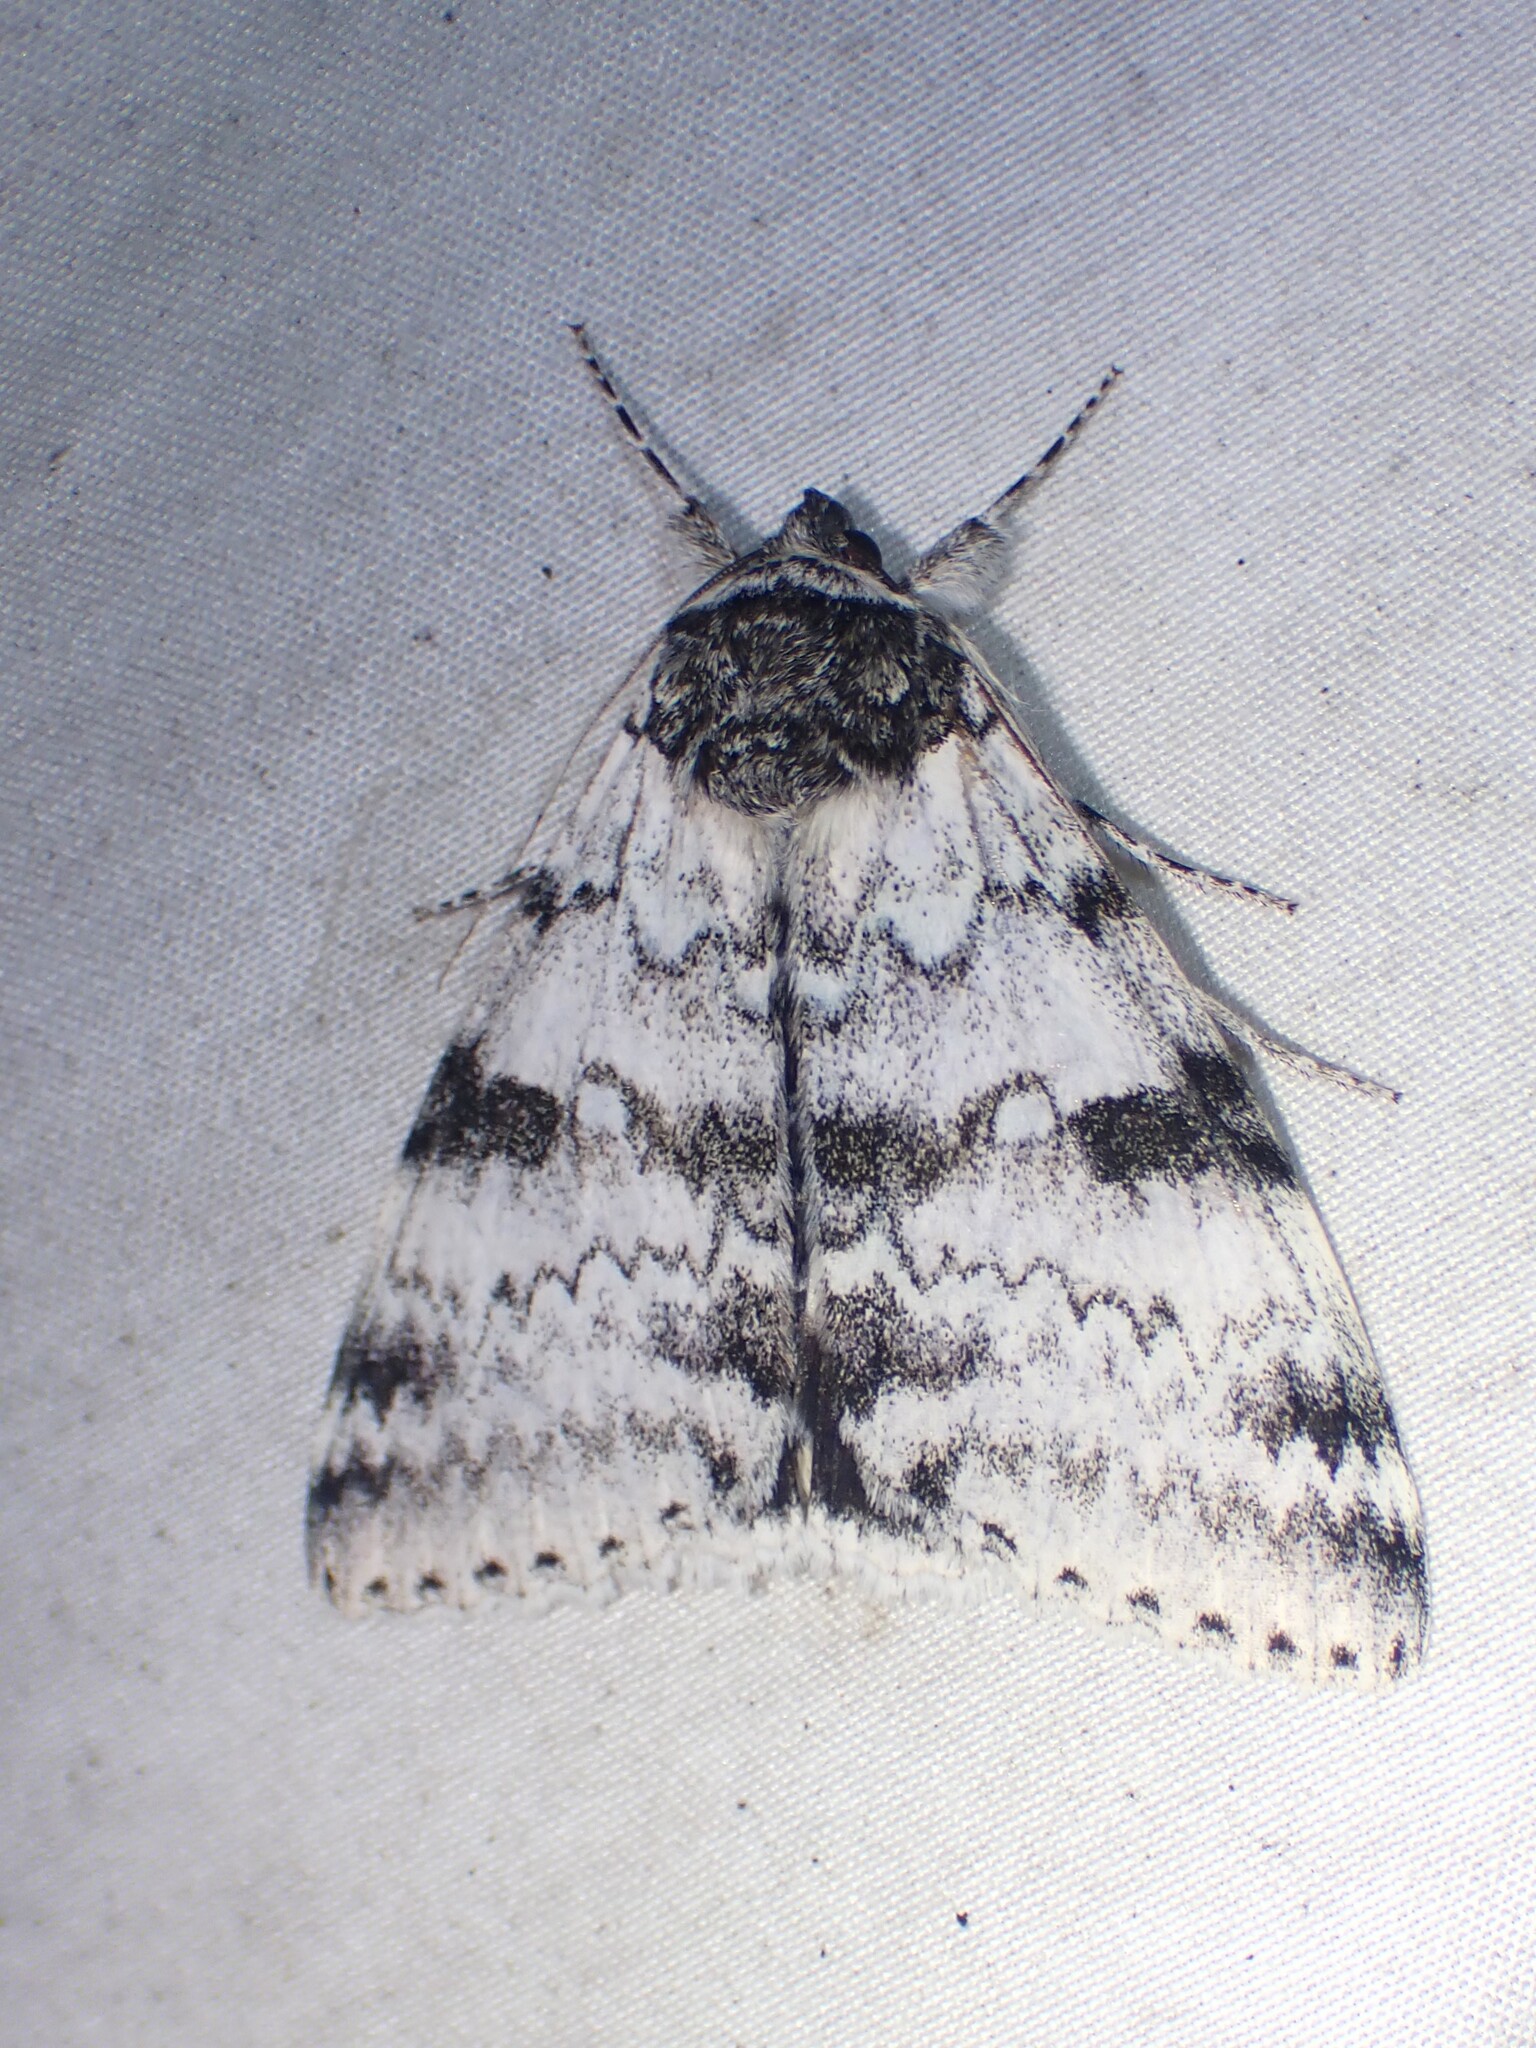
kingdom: Animalia
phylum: Arthropoda
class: Insecta
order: Lepidoptera
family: Erebidae
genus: Catocala
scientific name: Catocala relicta
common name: White underwing
